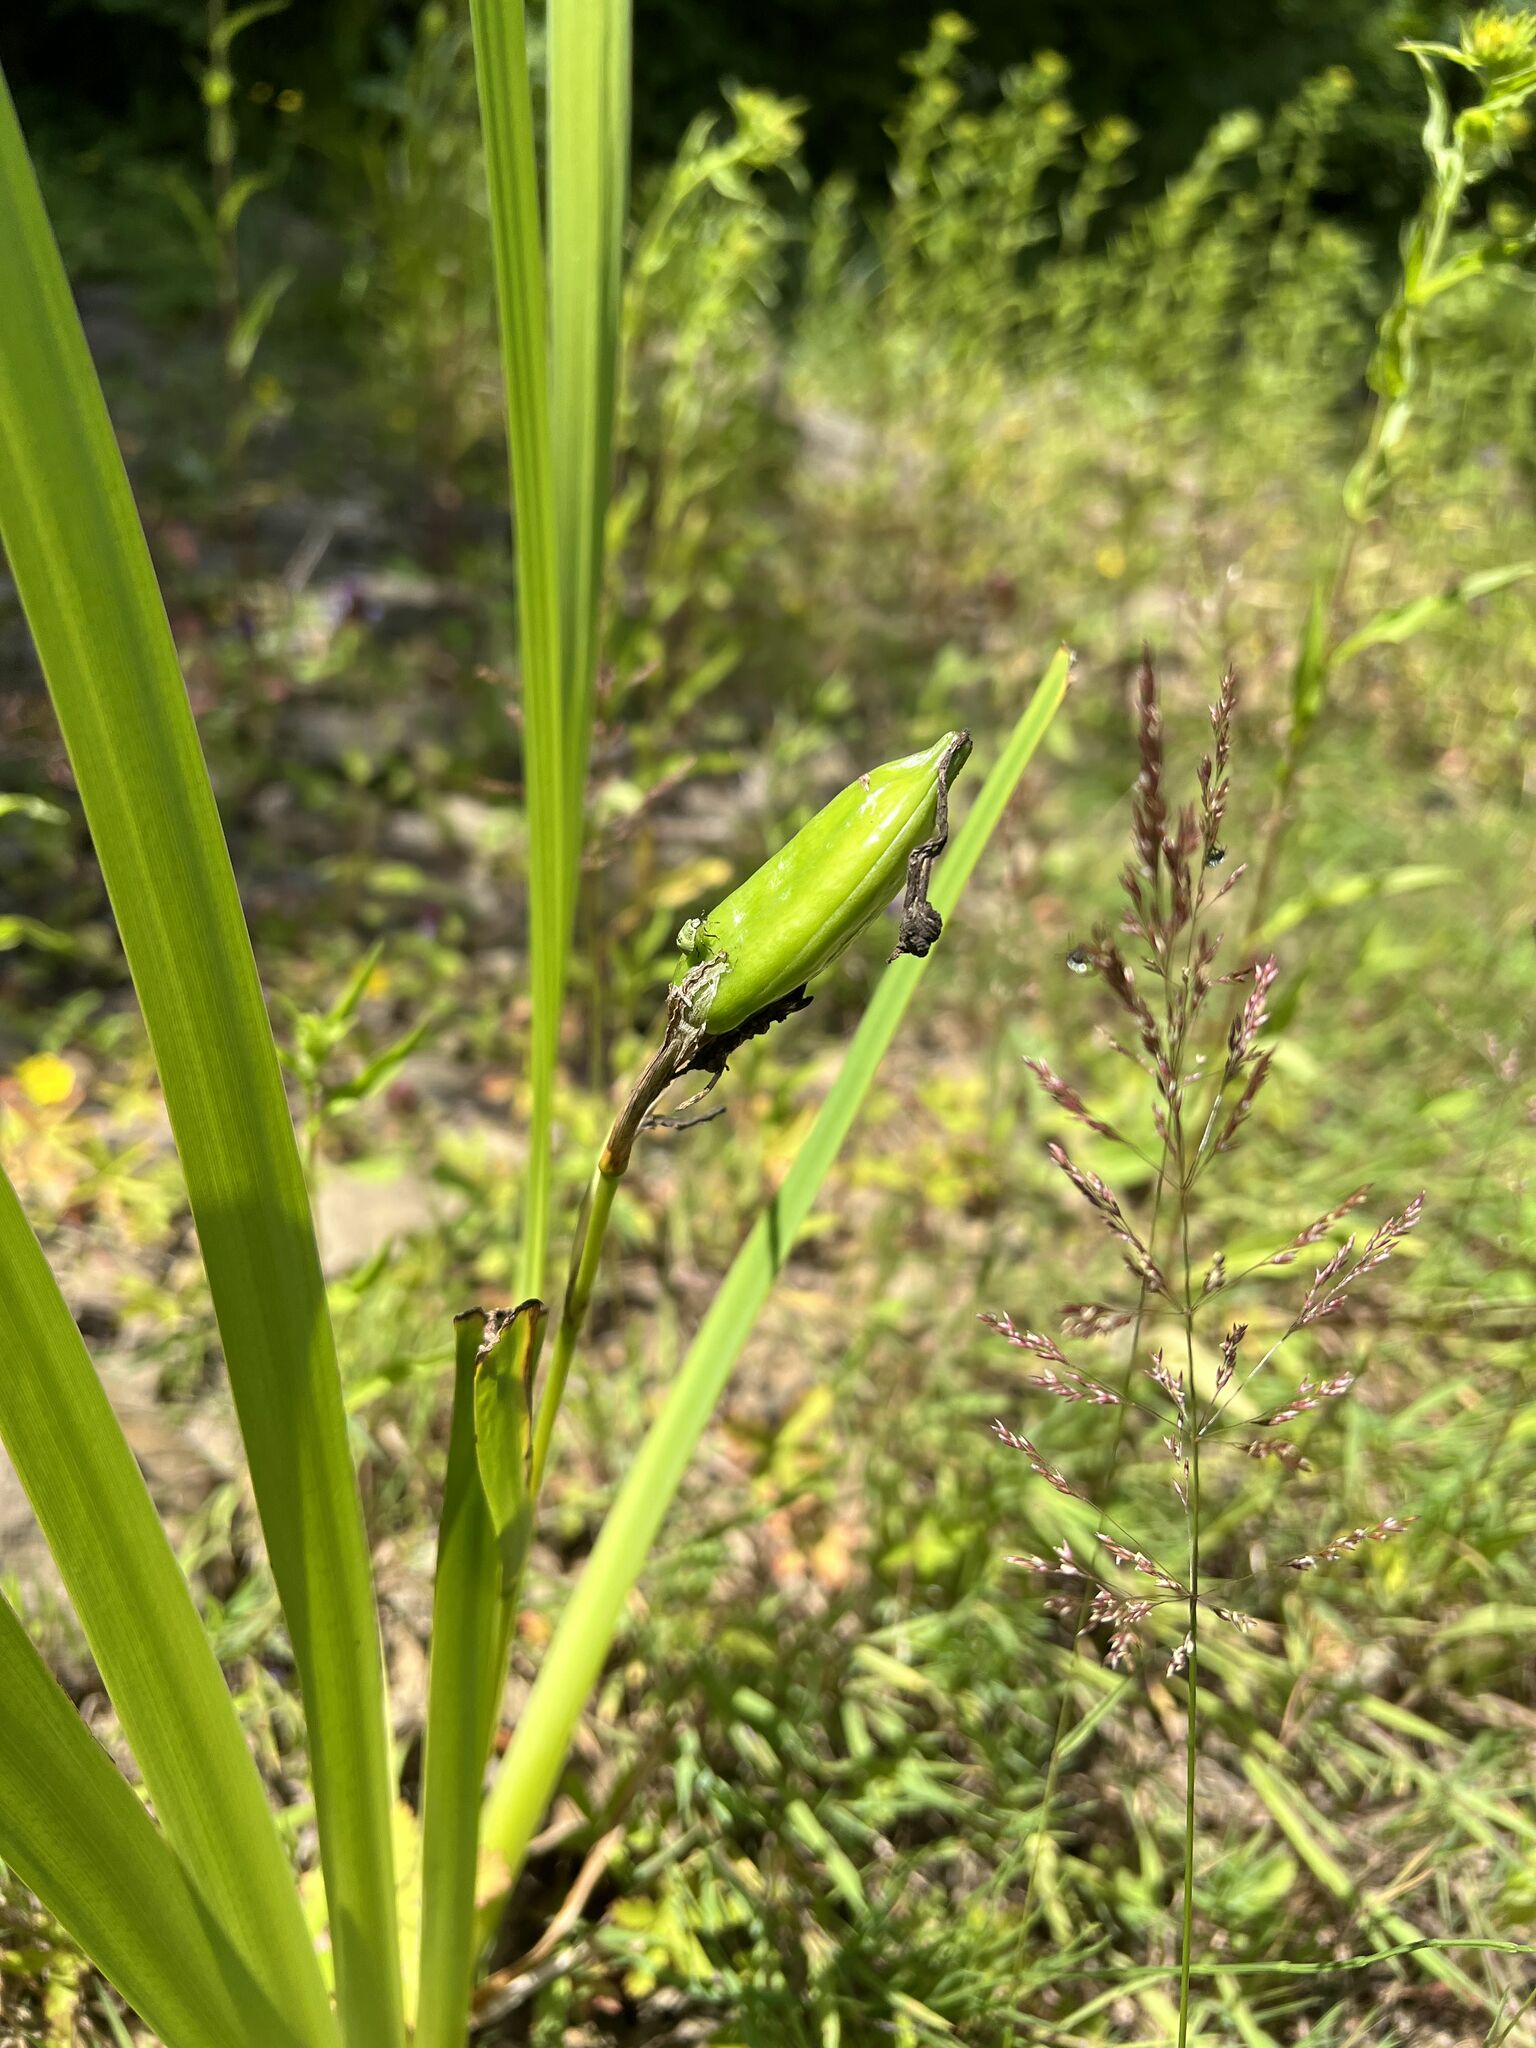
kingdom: Plantae
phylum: Tracheophyta
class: Liliopsida
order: Asparagales
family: Iridaceae
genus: Iris
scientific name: Iris pseudacorus
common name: Yellow flag
